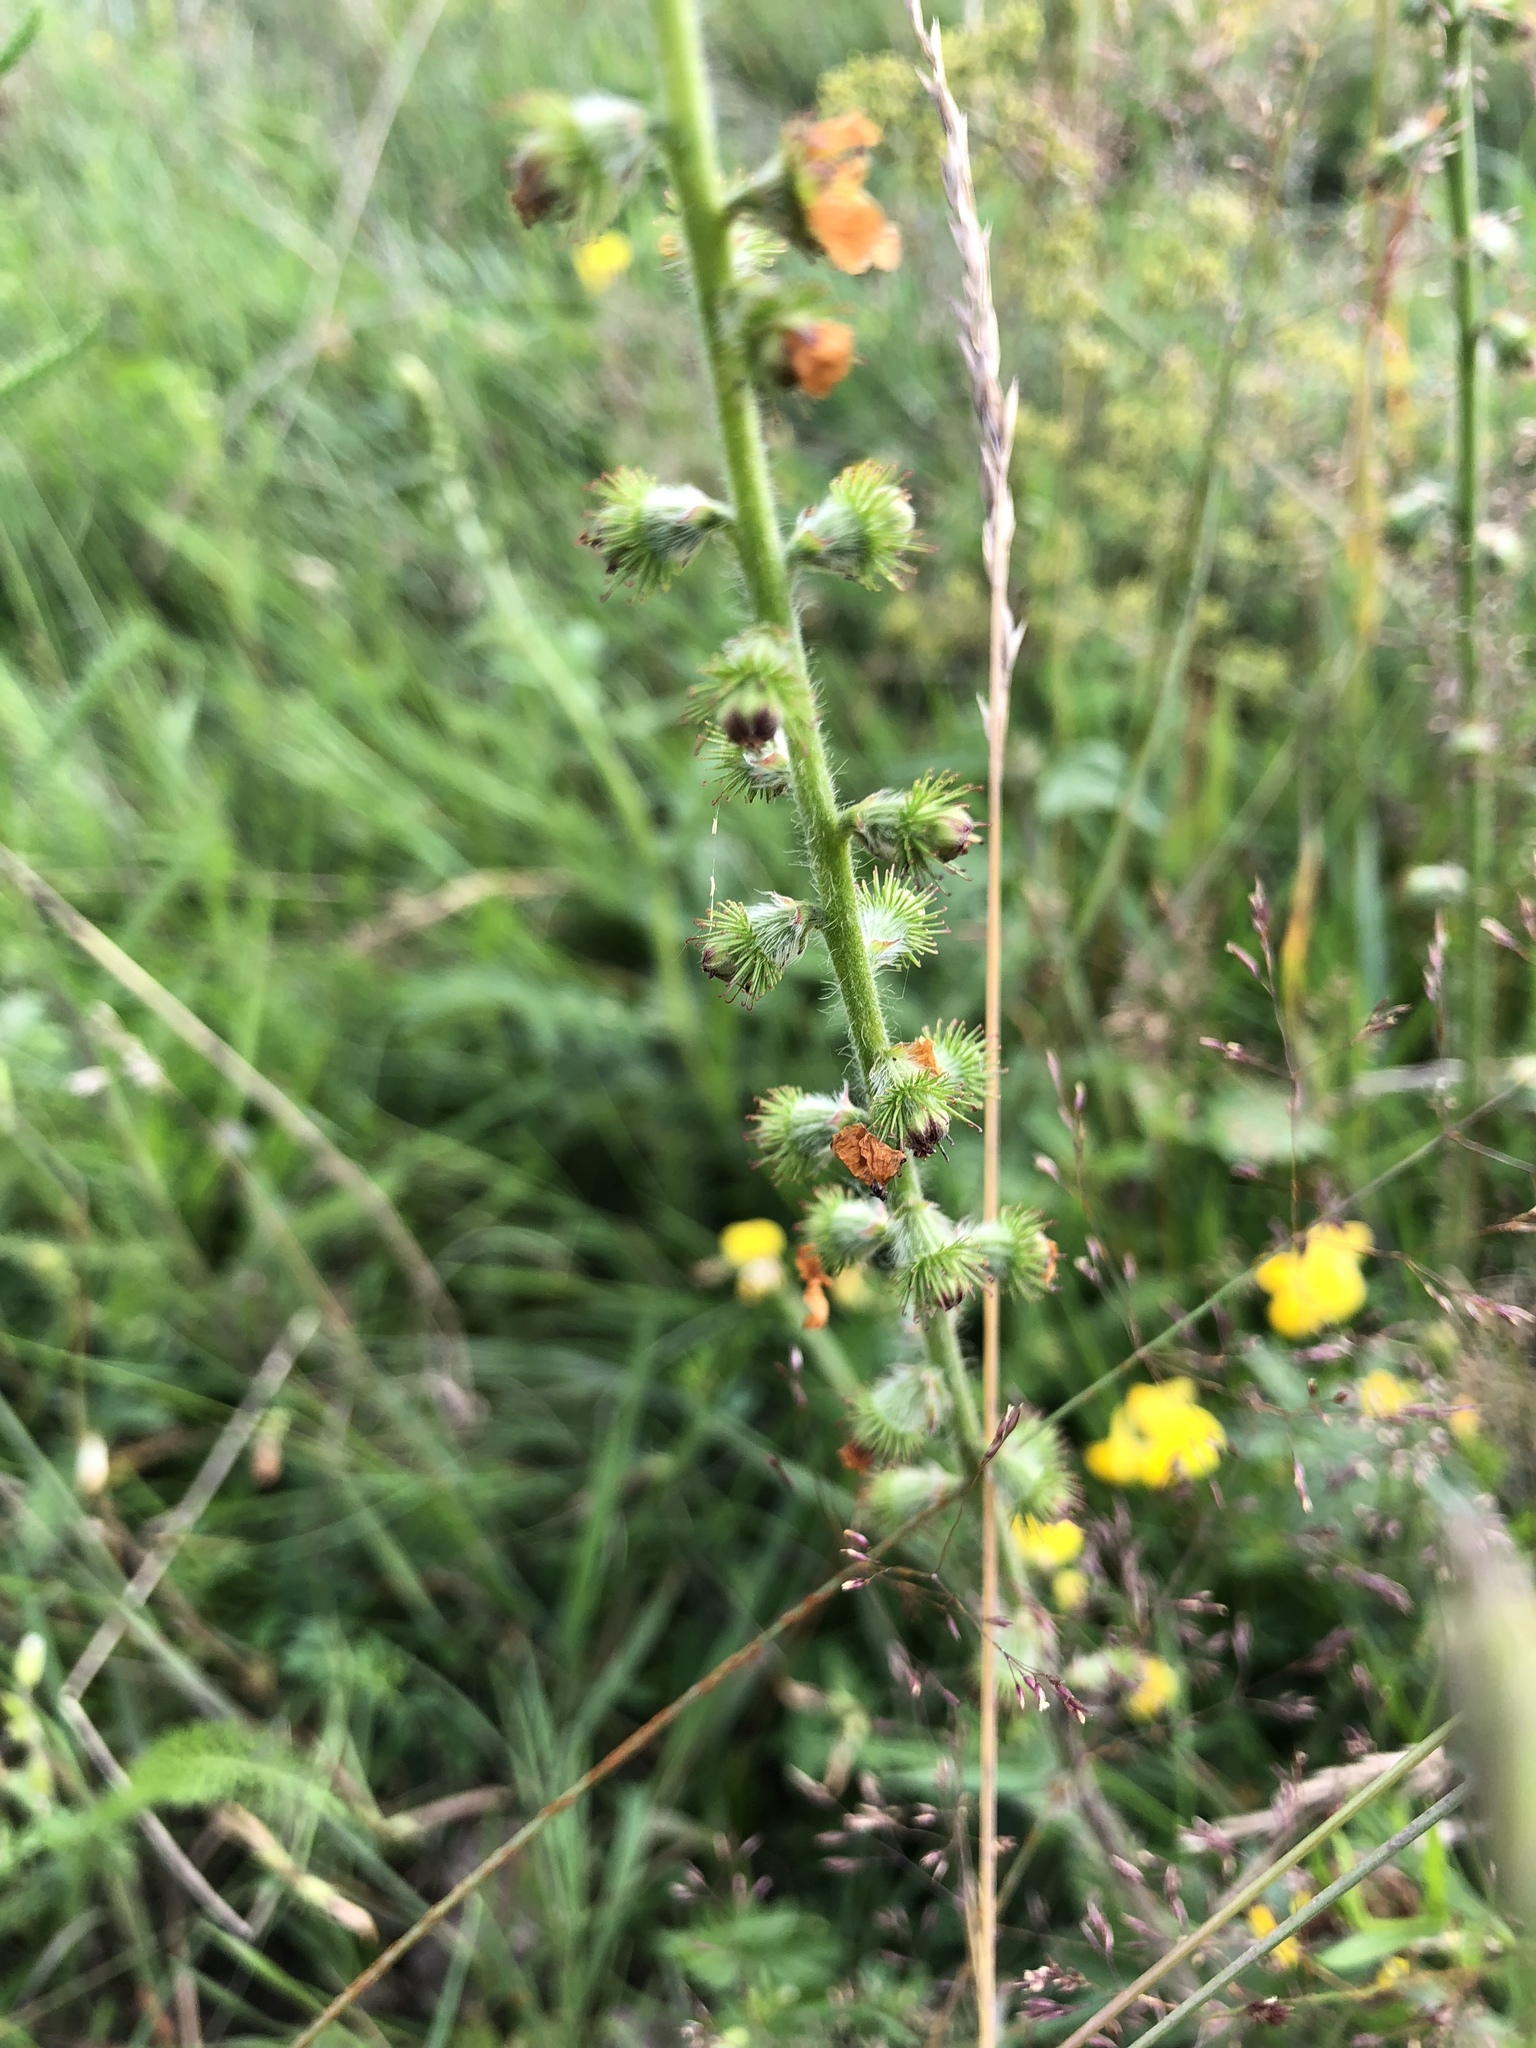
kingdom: Plantae
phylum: Tracheophyta
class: Magnoliopsida
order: Rosales
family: Rosaceae
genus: Agrimonia
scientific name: Agrimonia eupatoria
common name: Agrimony
